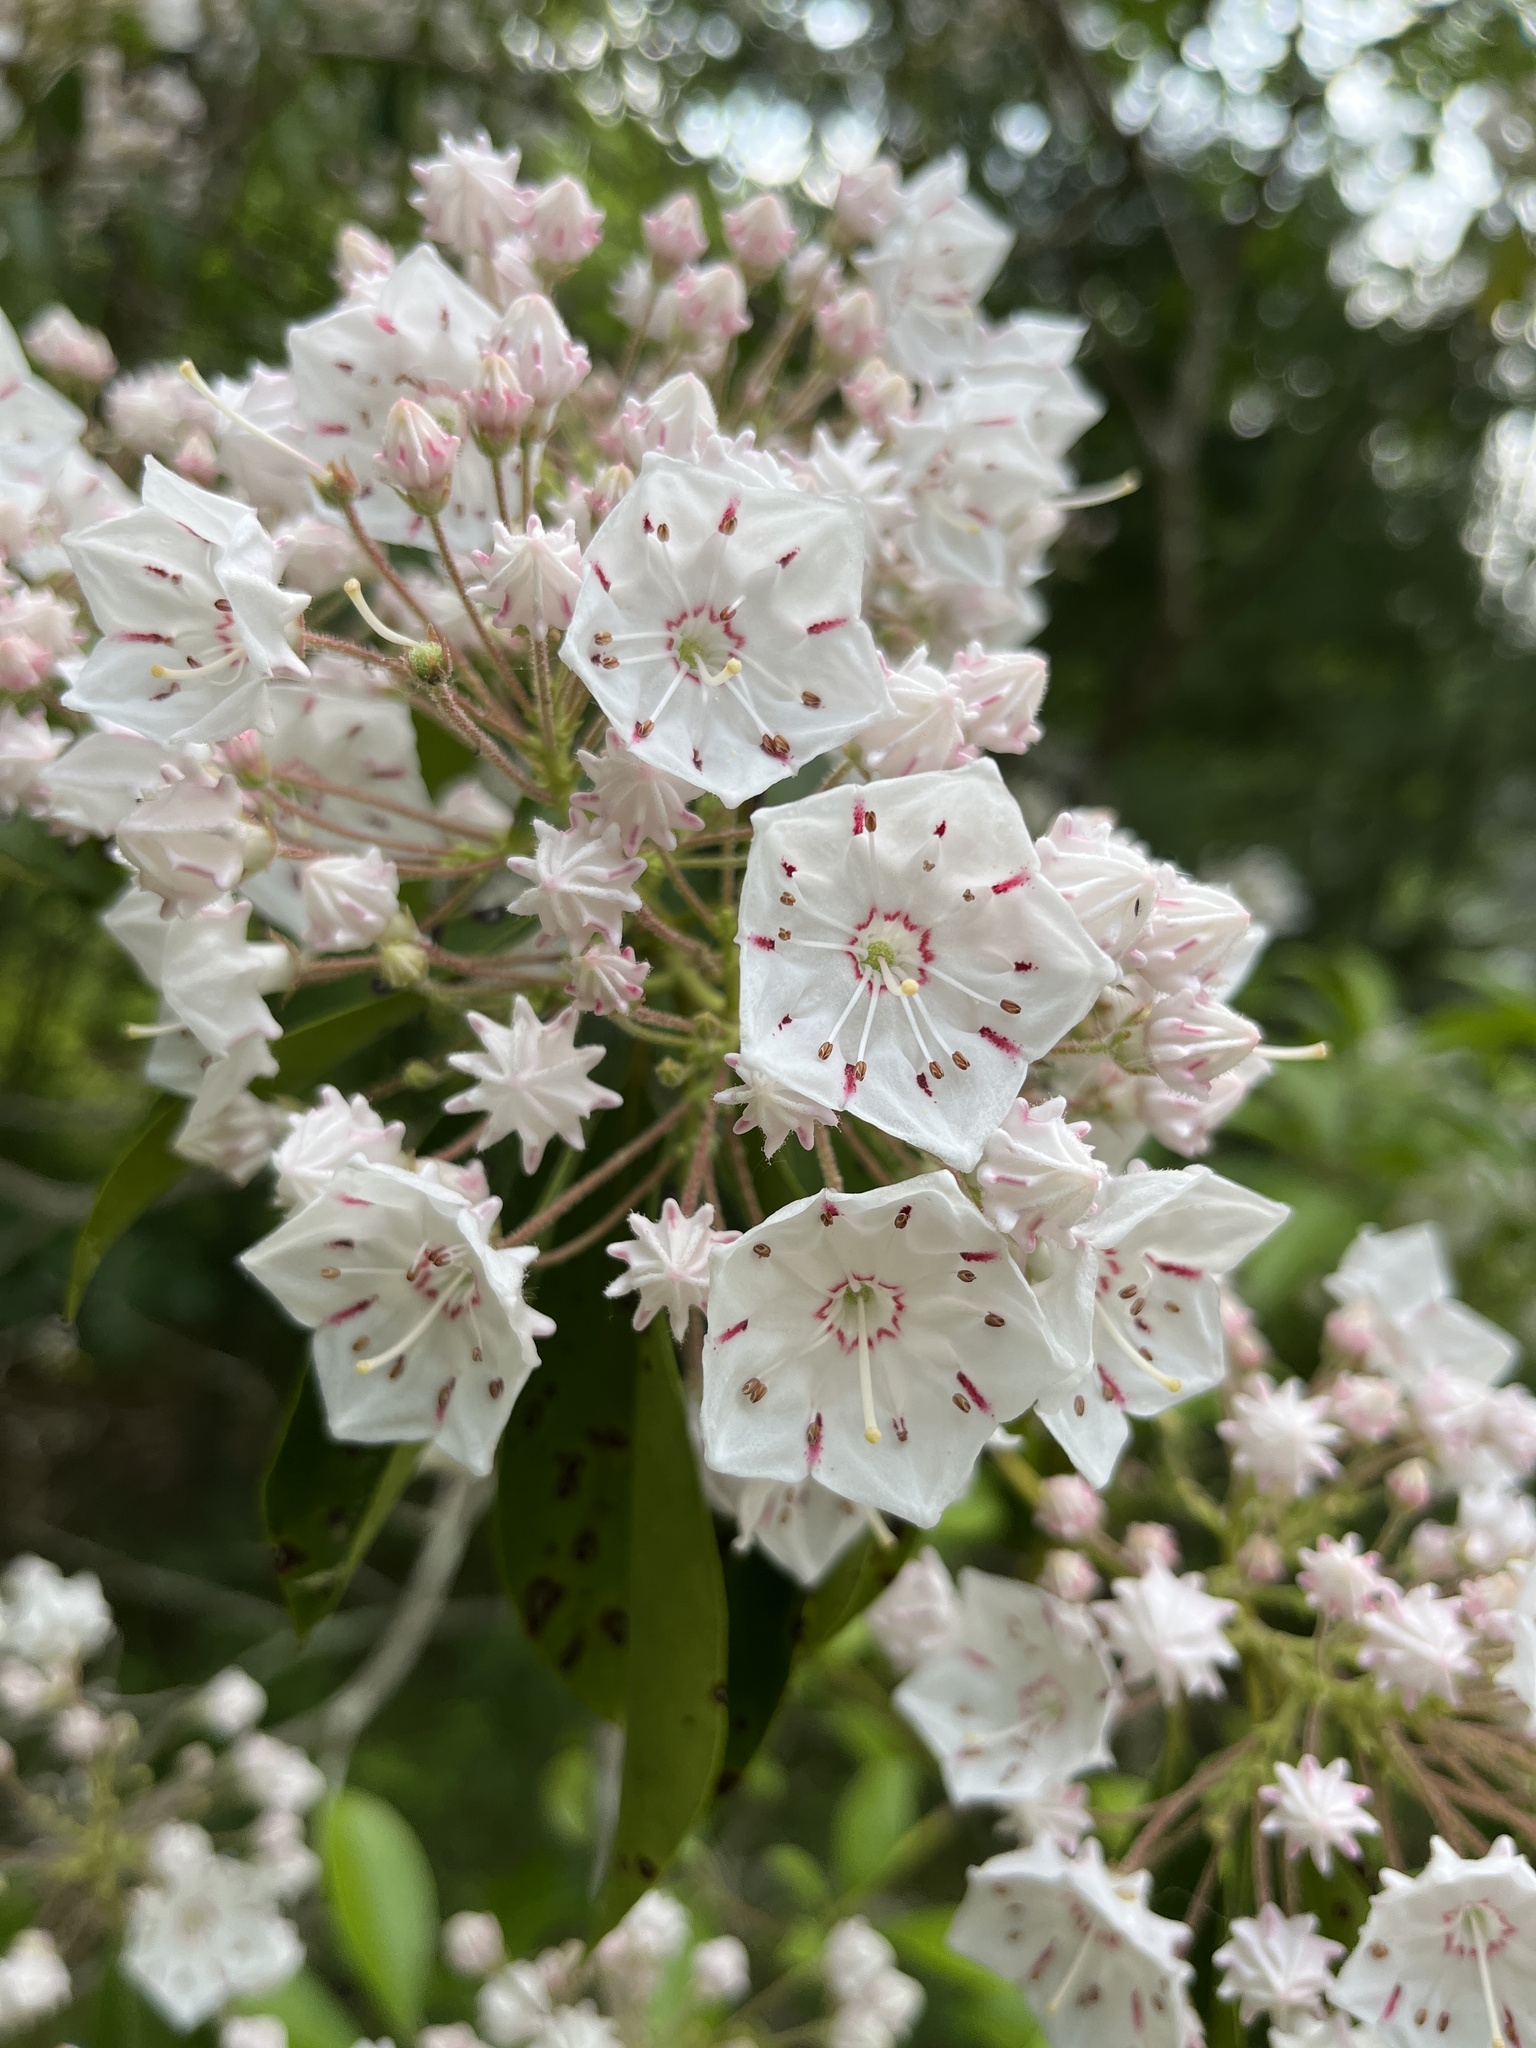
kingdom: Plantae
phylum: Tracheophyta
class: Magnoliopsida
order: Ericales
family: Ericaceae
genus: Kalmia
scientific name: Kalmia latifolia
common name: Mountain-laurel
